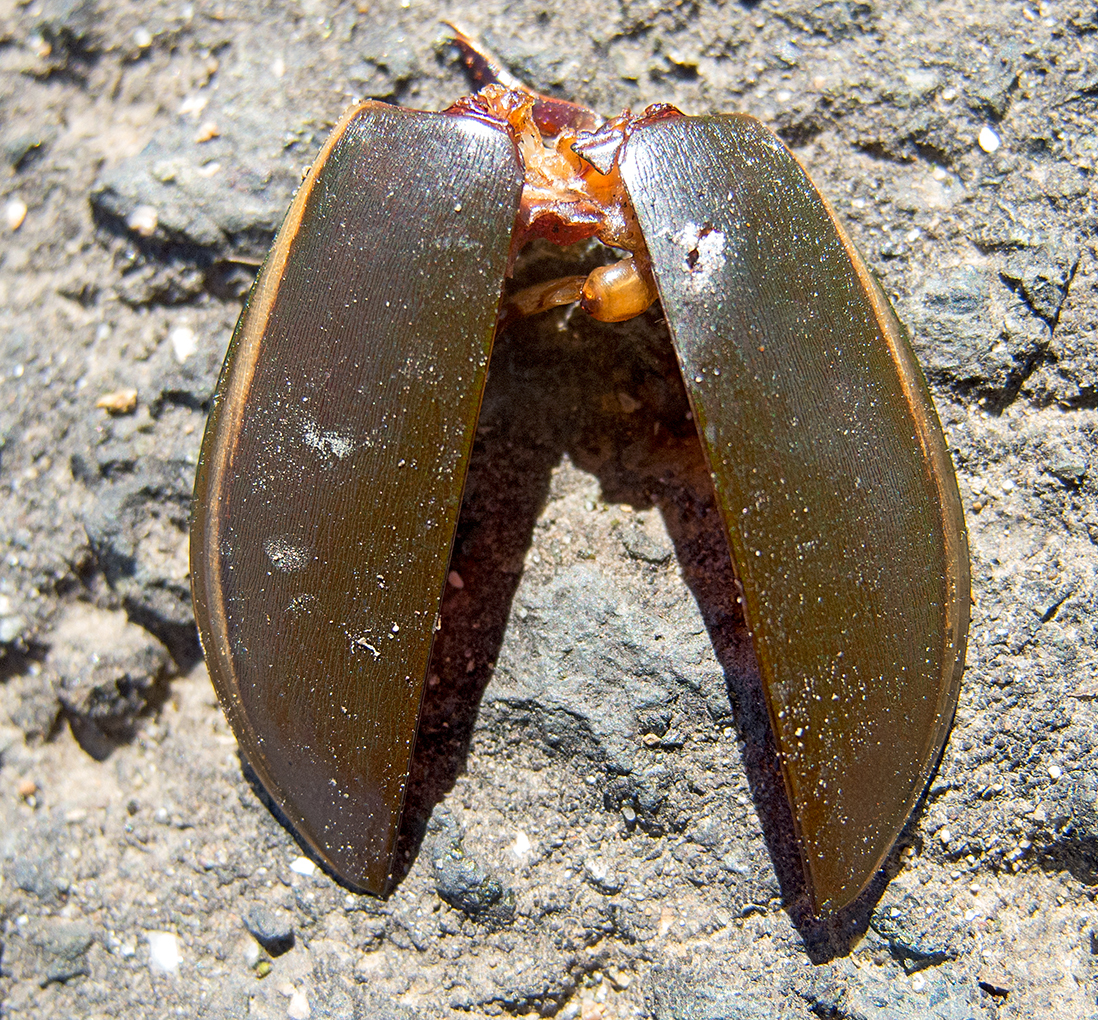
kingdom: Animalia
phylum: Arthropoda
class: Insecta
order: Coleoptera
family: Dytiscidae
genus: Cybister
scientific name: Cybister lateralimarginalis
